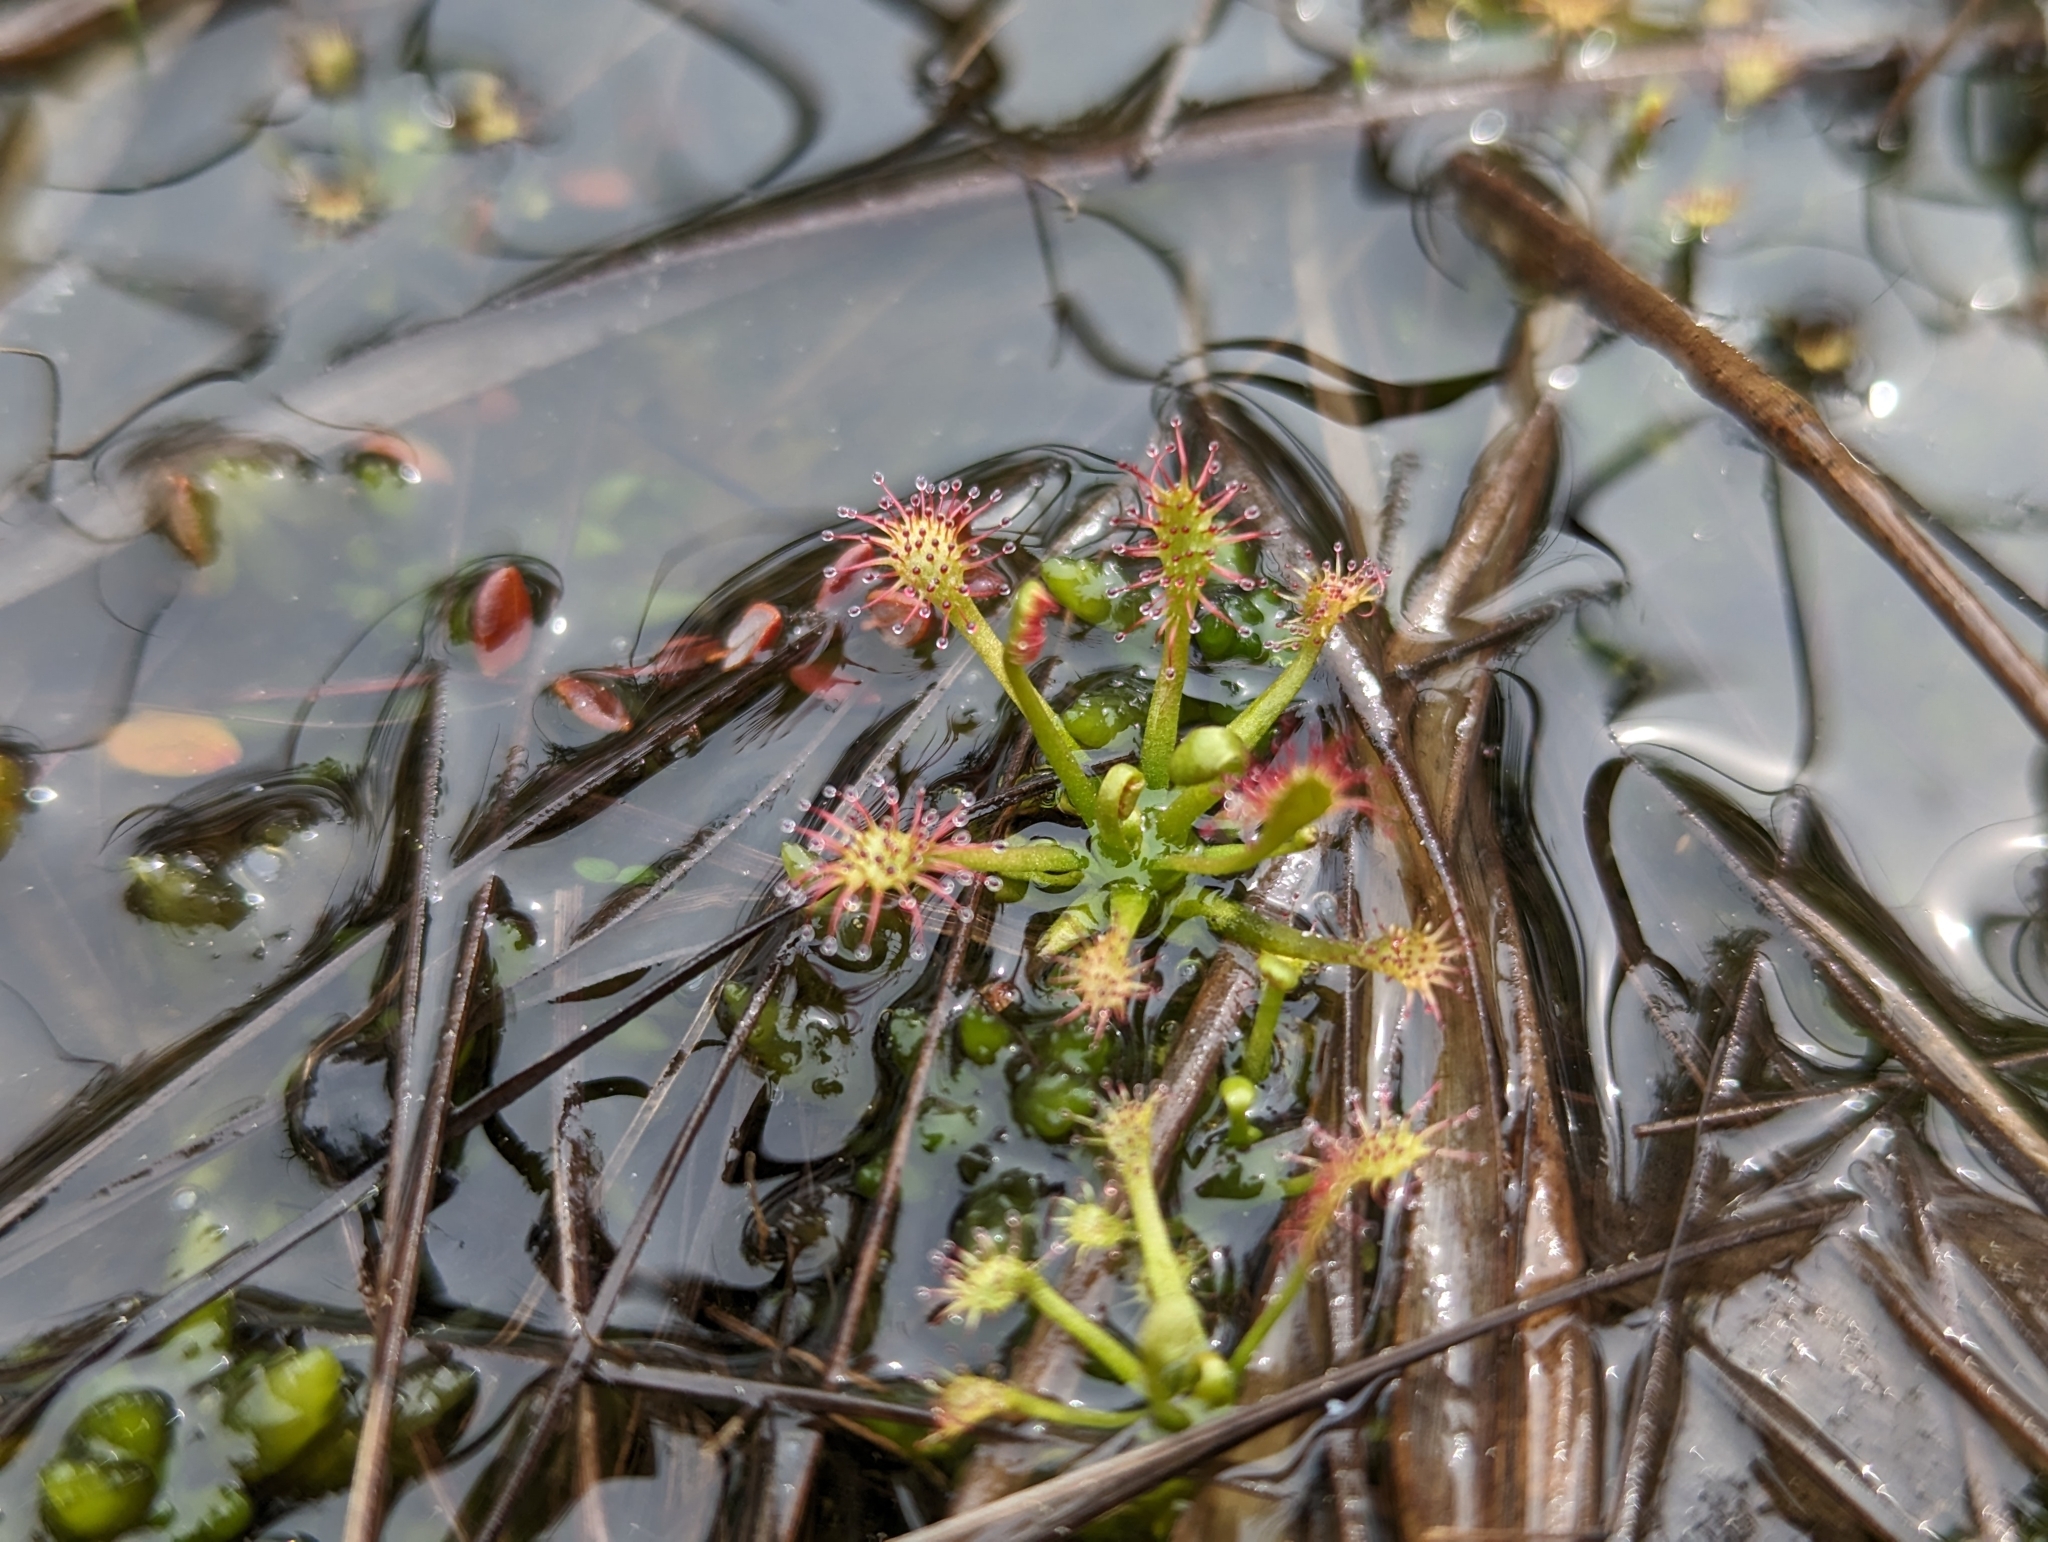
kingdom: Plantae
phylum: Tracheophyta
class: Magnoliopsida
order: Caryophyllales
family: Droseraceae
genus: Drosera
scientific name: Drosera intermedia
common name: Oblong-leaved sundew
